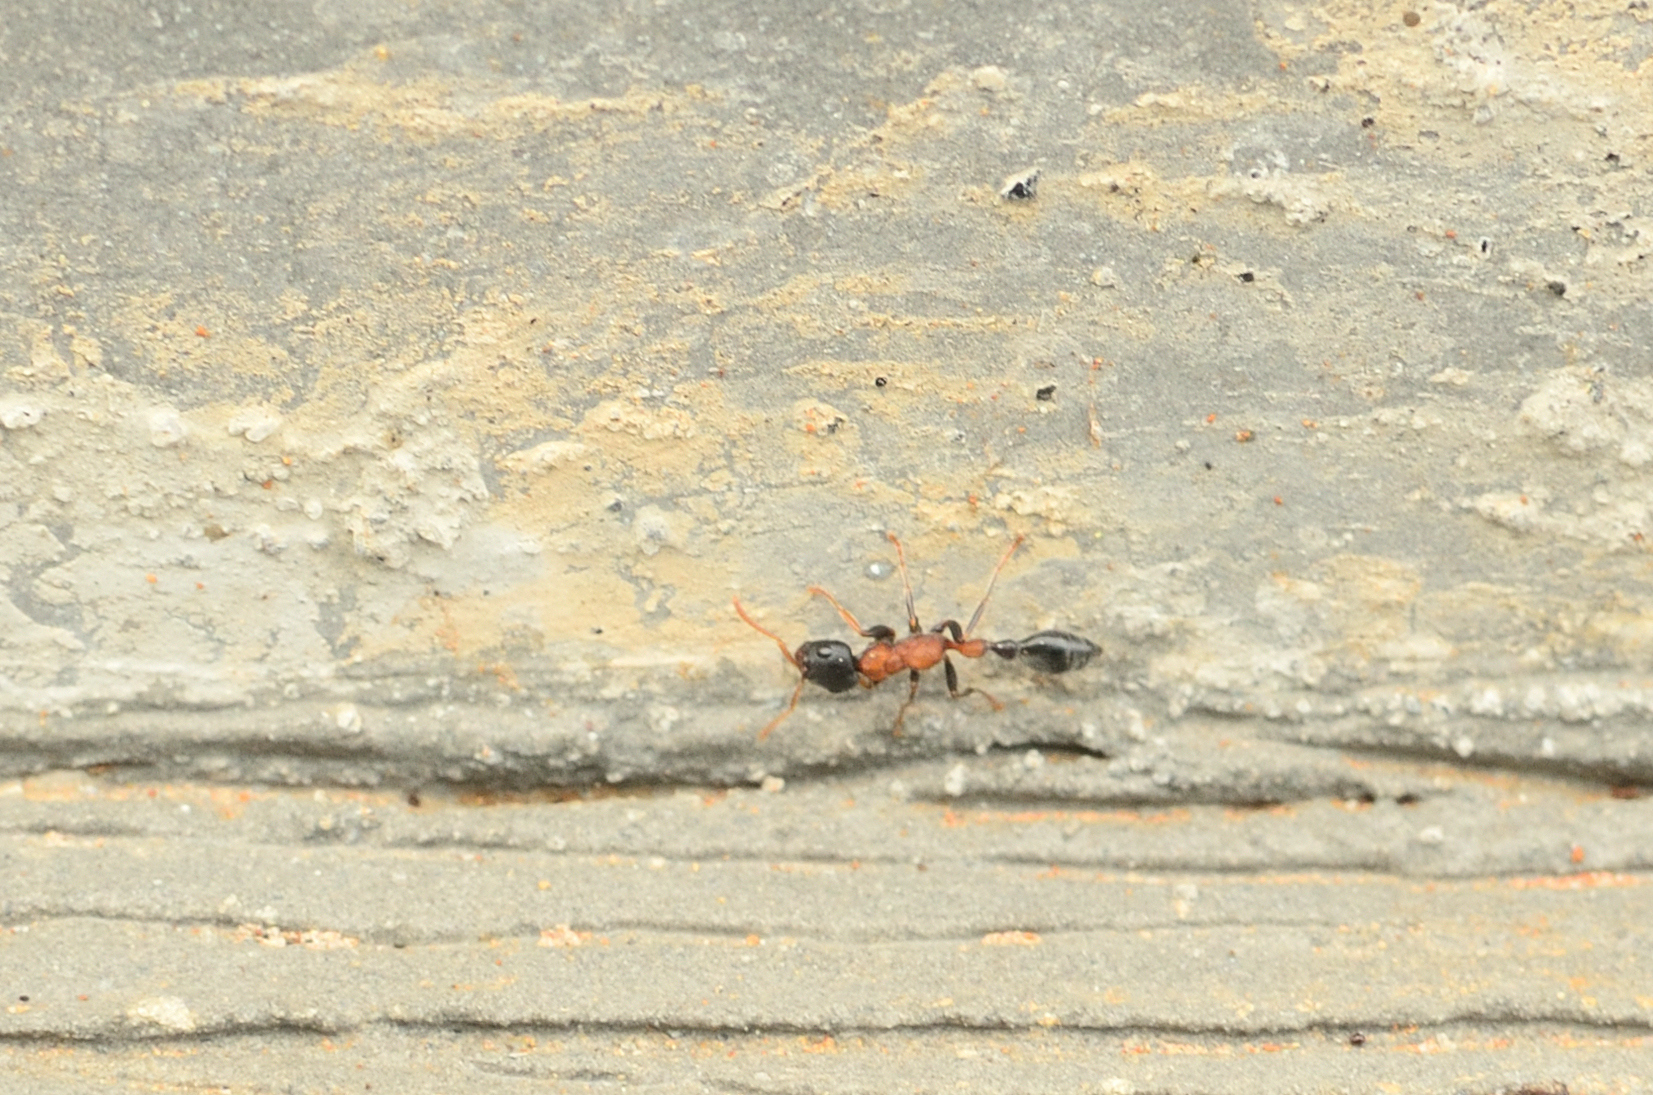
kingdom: Animalia
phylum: Arthropoda
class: Insecta
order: Hymenoptera
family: Formicidae
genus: Tetraponera
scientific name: Tetraponera rufonigra
